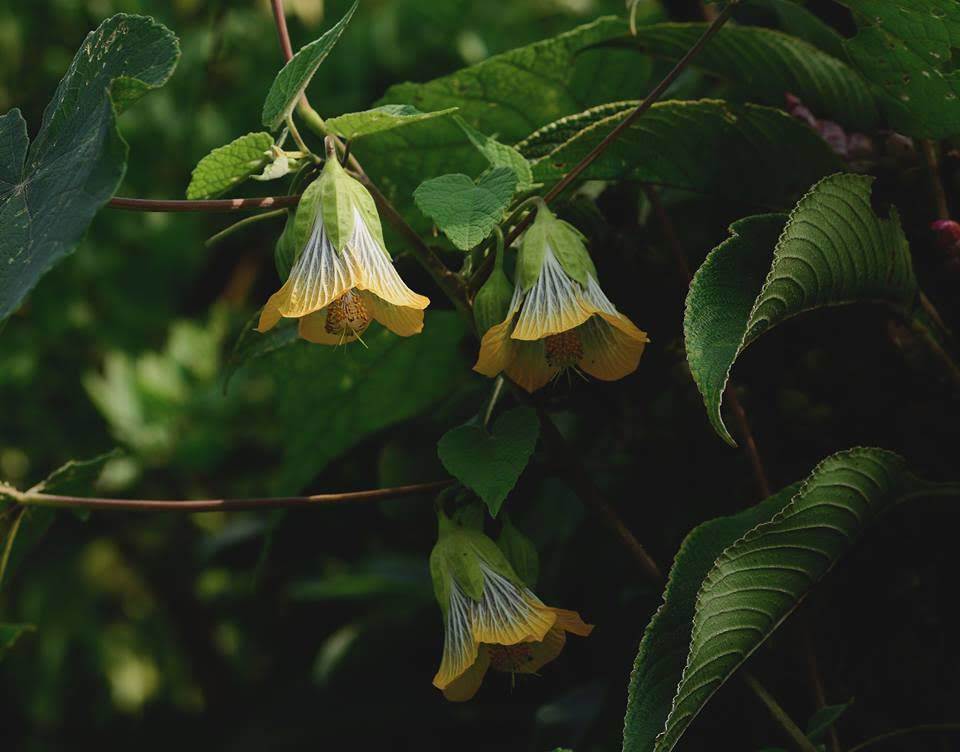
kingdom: Plantae
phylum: Tracheophyta
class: Magnoliopsida
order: Malvales
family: Malvaceae
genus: Abutilon
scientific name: Abutilon ranadei
